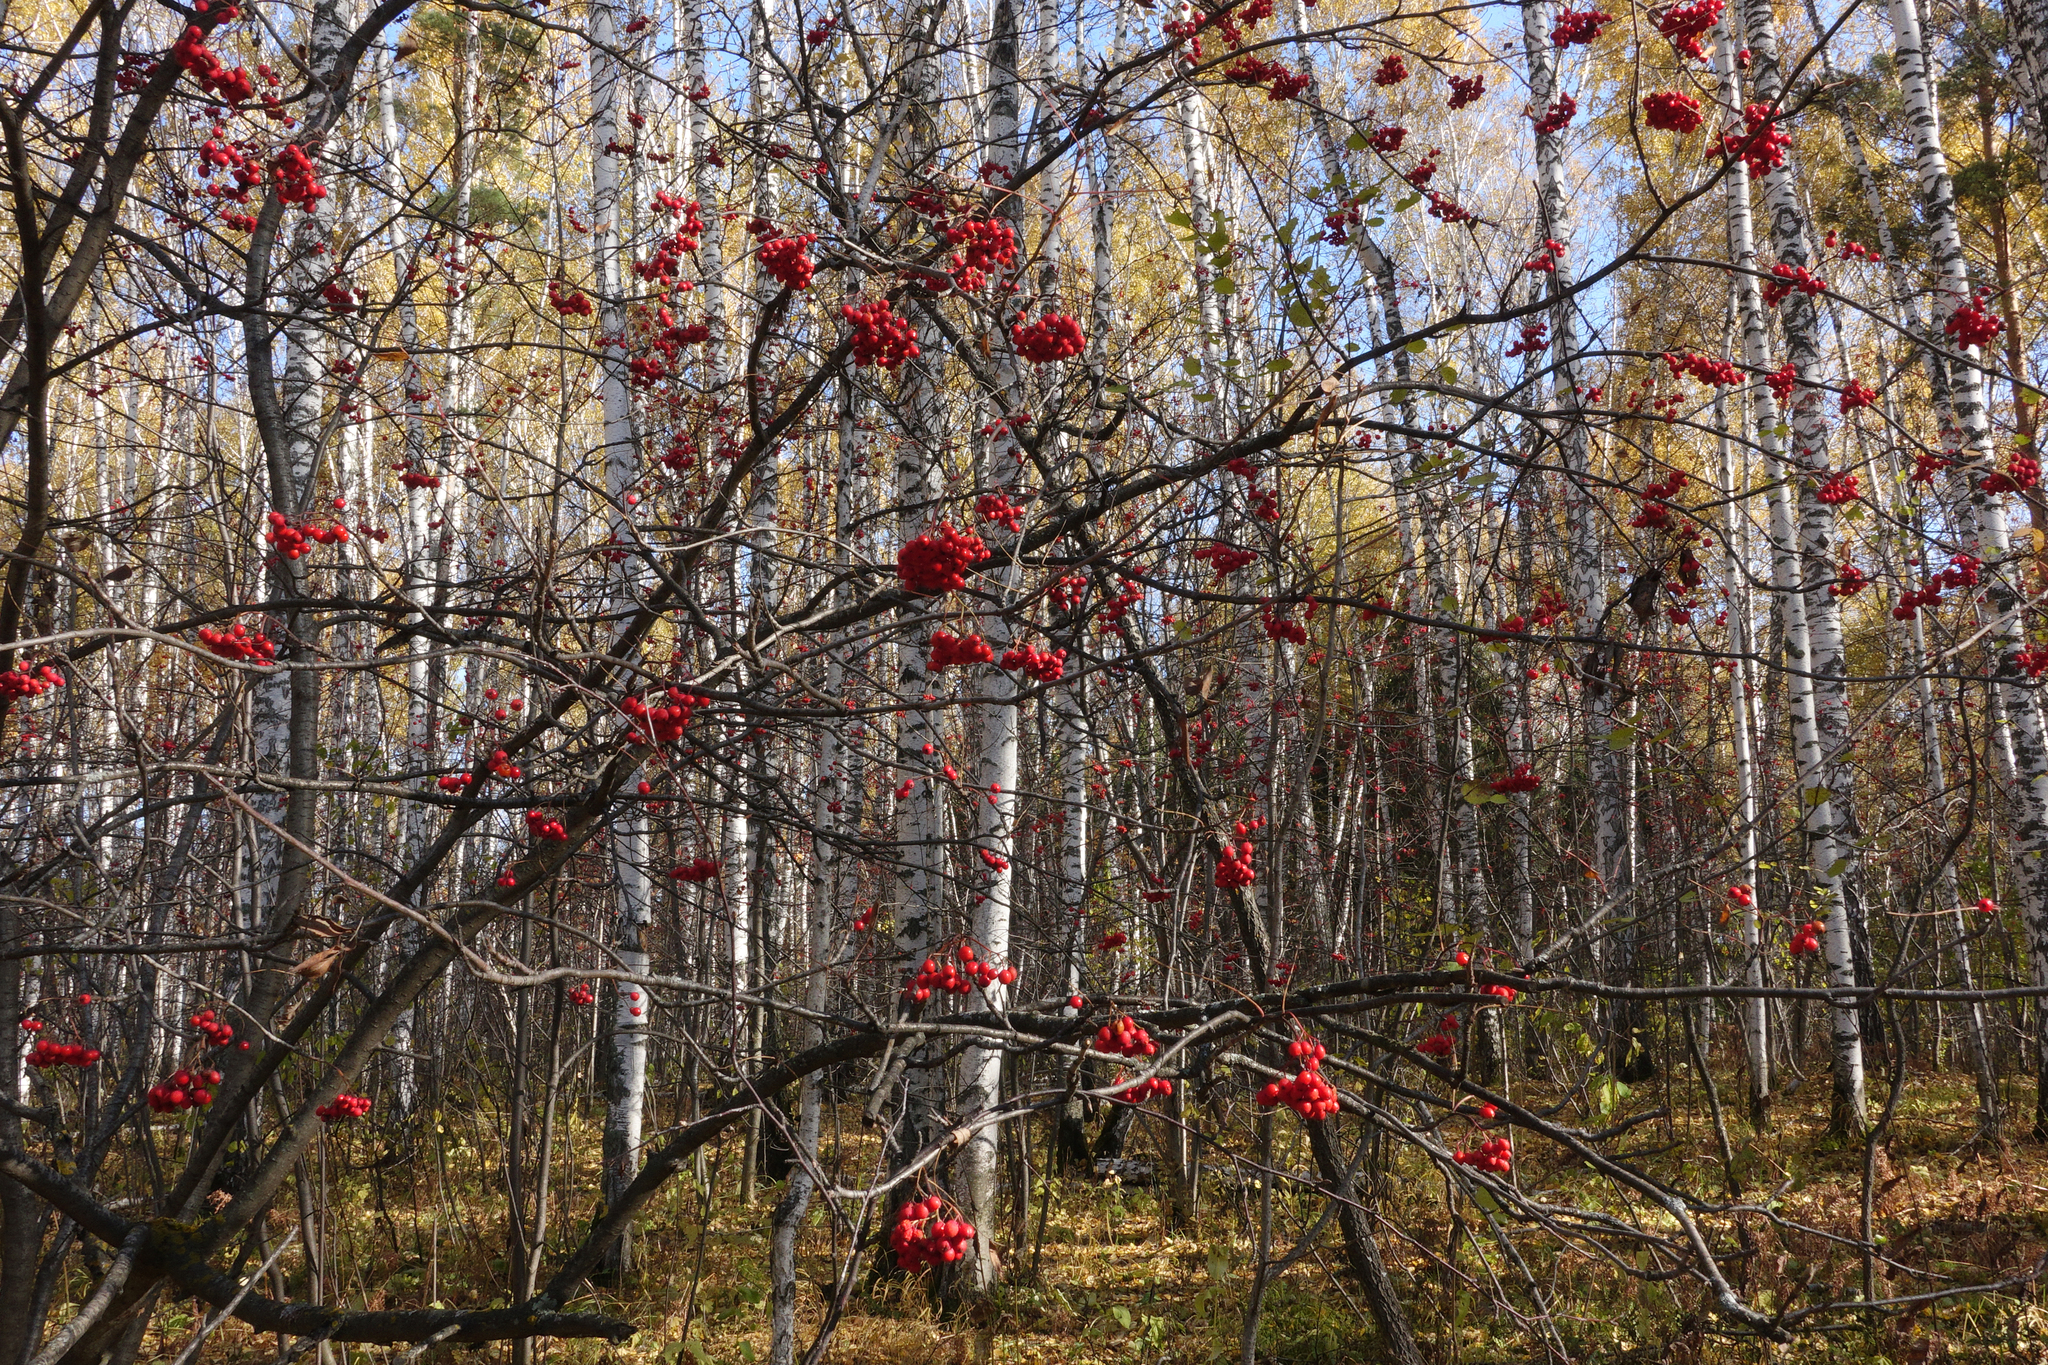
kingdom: Plantae
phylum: Tracheophyta
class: Magnoliopsida
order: Rosales
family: Rosaceae
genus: Sorbus
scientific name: Sorbus aucuparia
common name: Rowan
